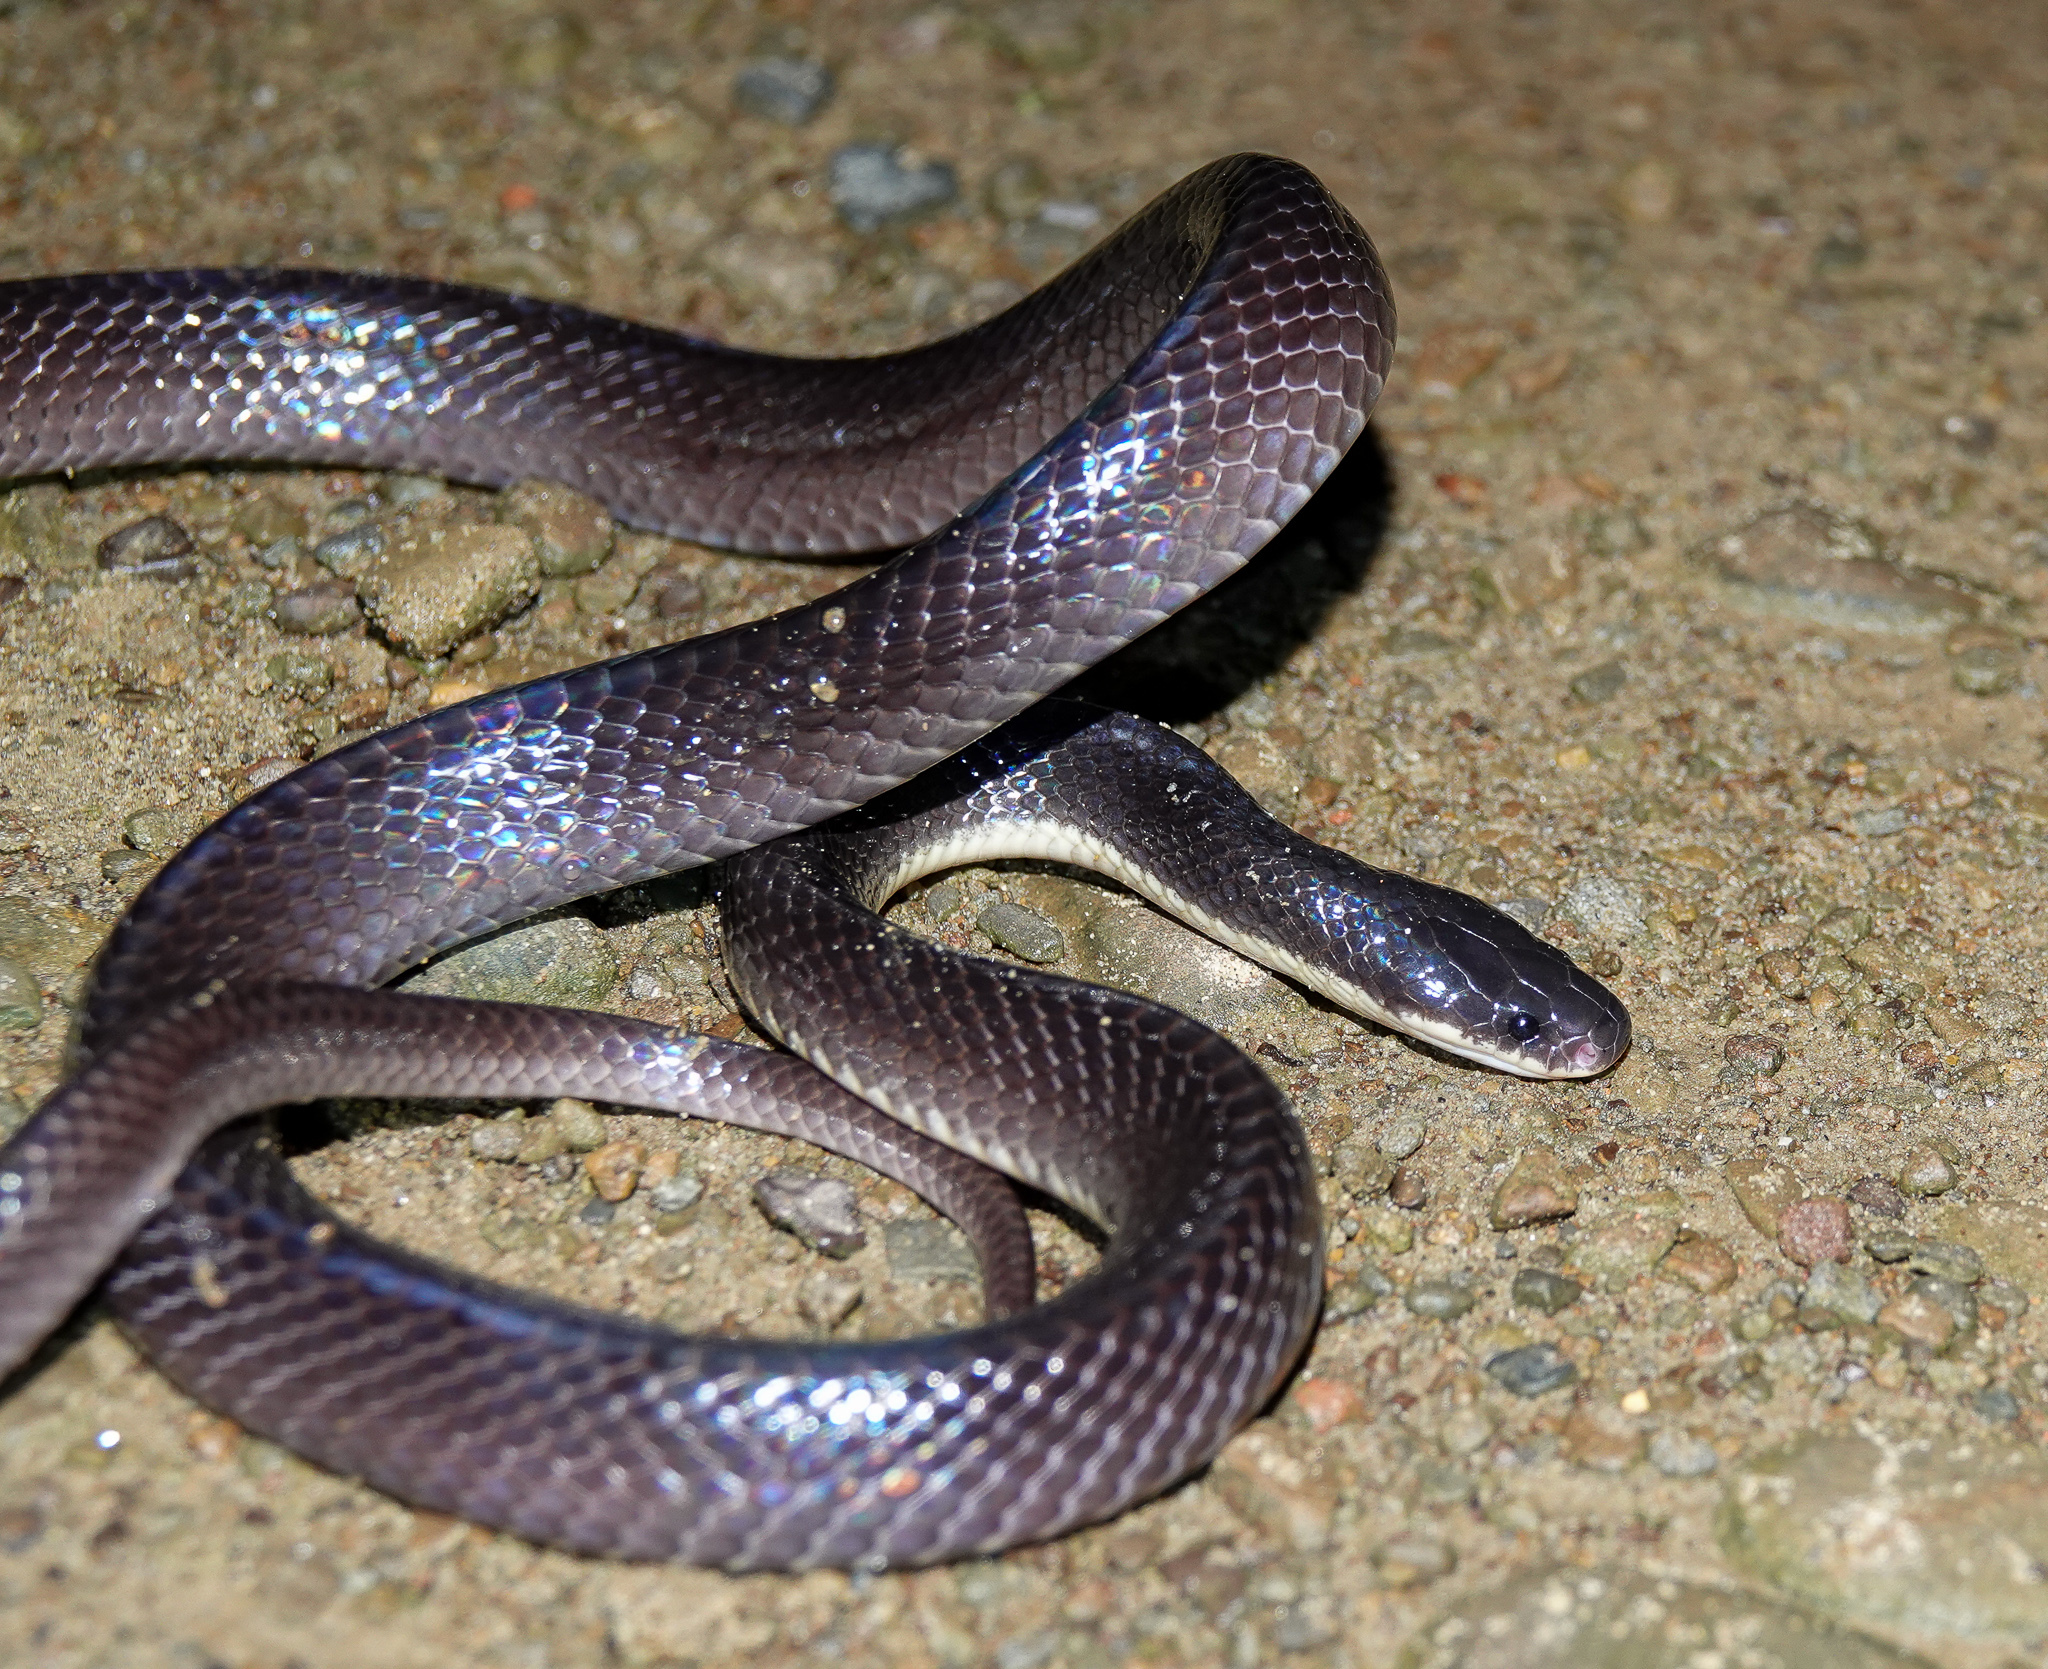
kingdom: Animalia
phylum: Chordata
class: Squamata
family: Elapidae
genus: Bungarus
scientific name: Bungarus niger
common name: Greater black krait
